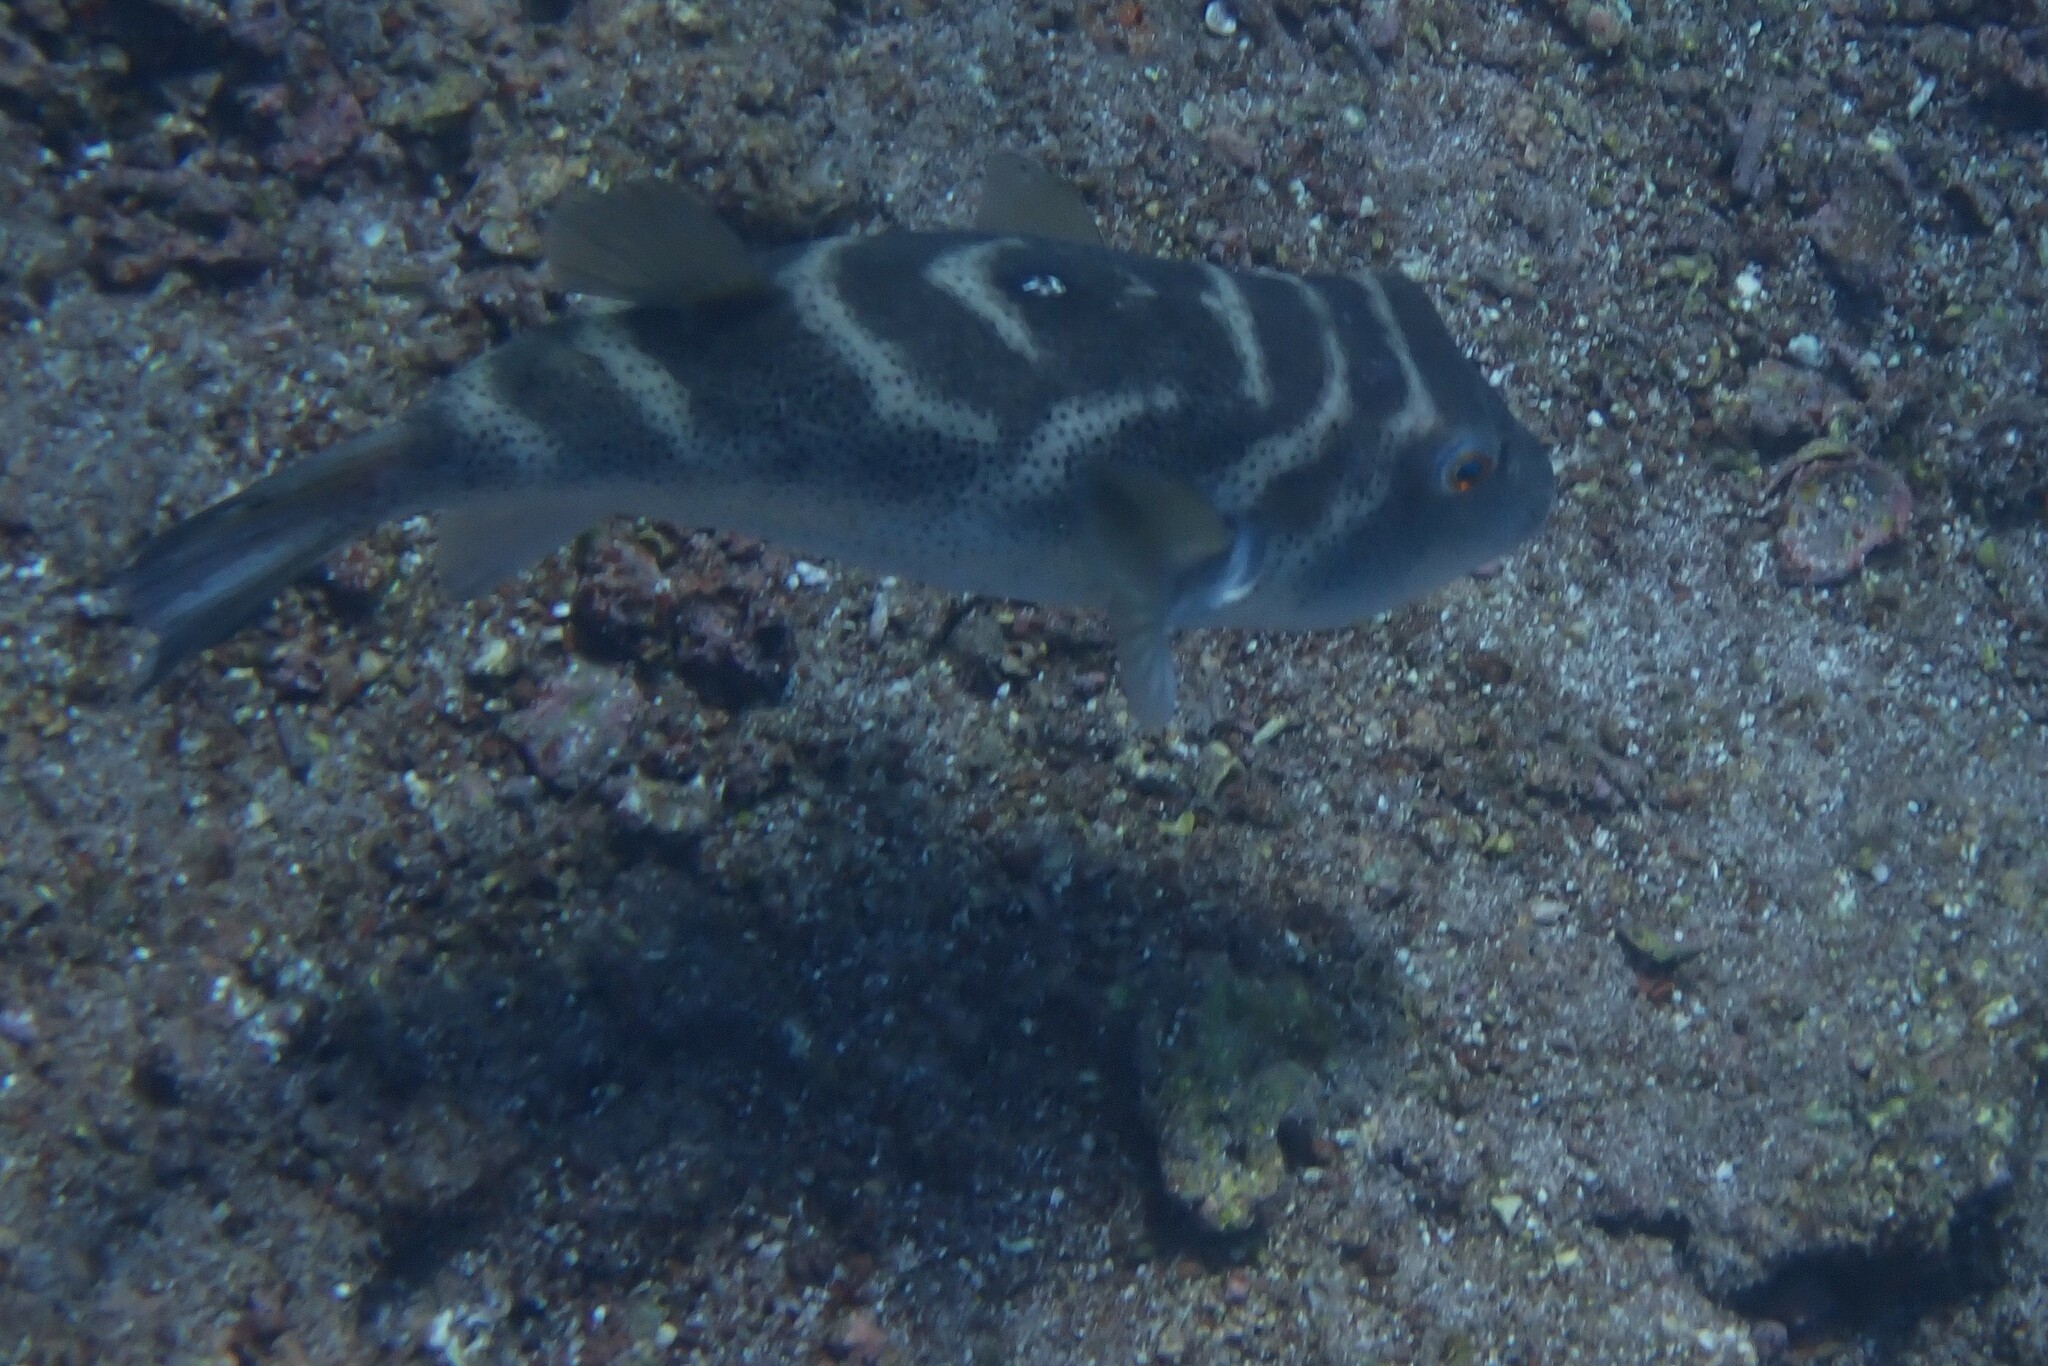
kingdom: Animalia
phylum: Chordata
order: Tetraodontiformes
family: Tetraodontidae
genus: Sphoeroides
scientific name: Sphoeroides annulatus
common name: Bullseye puffer
